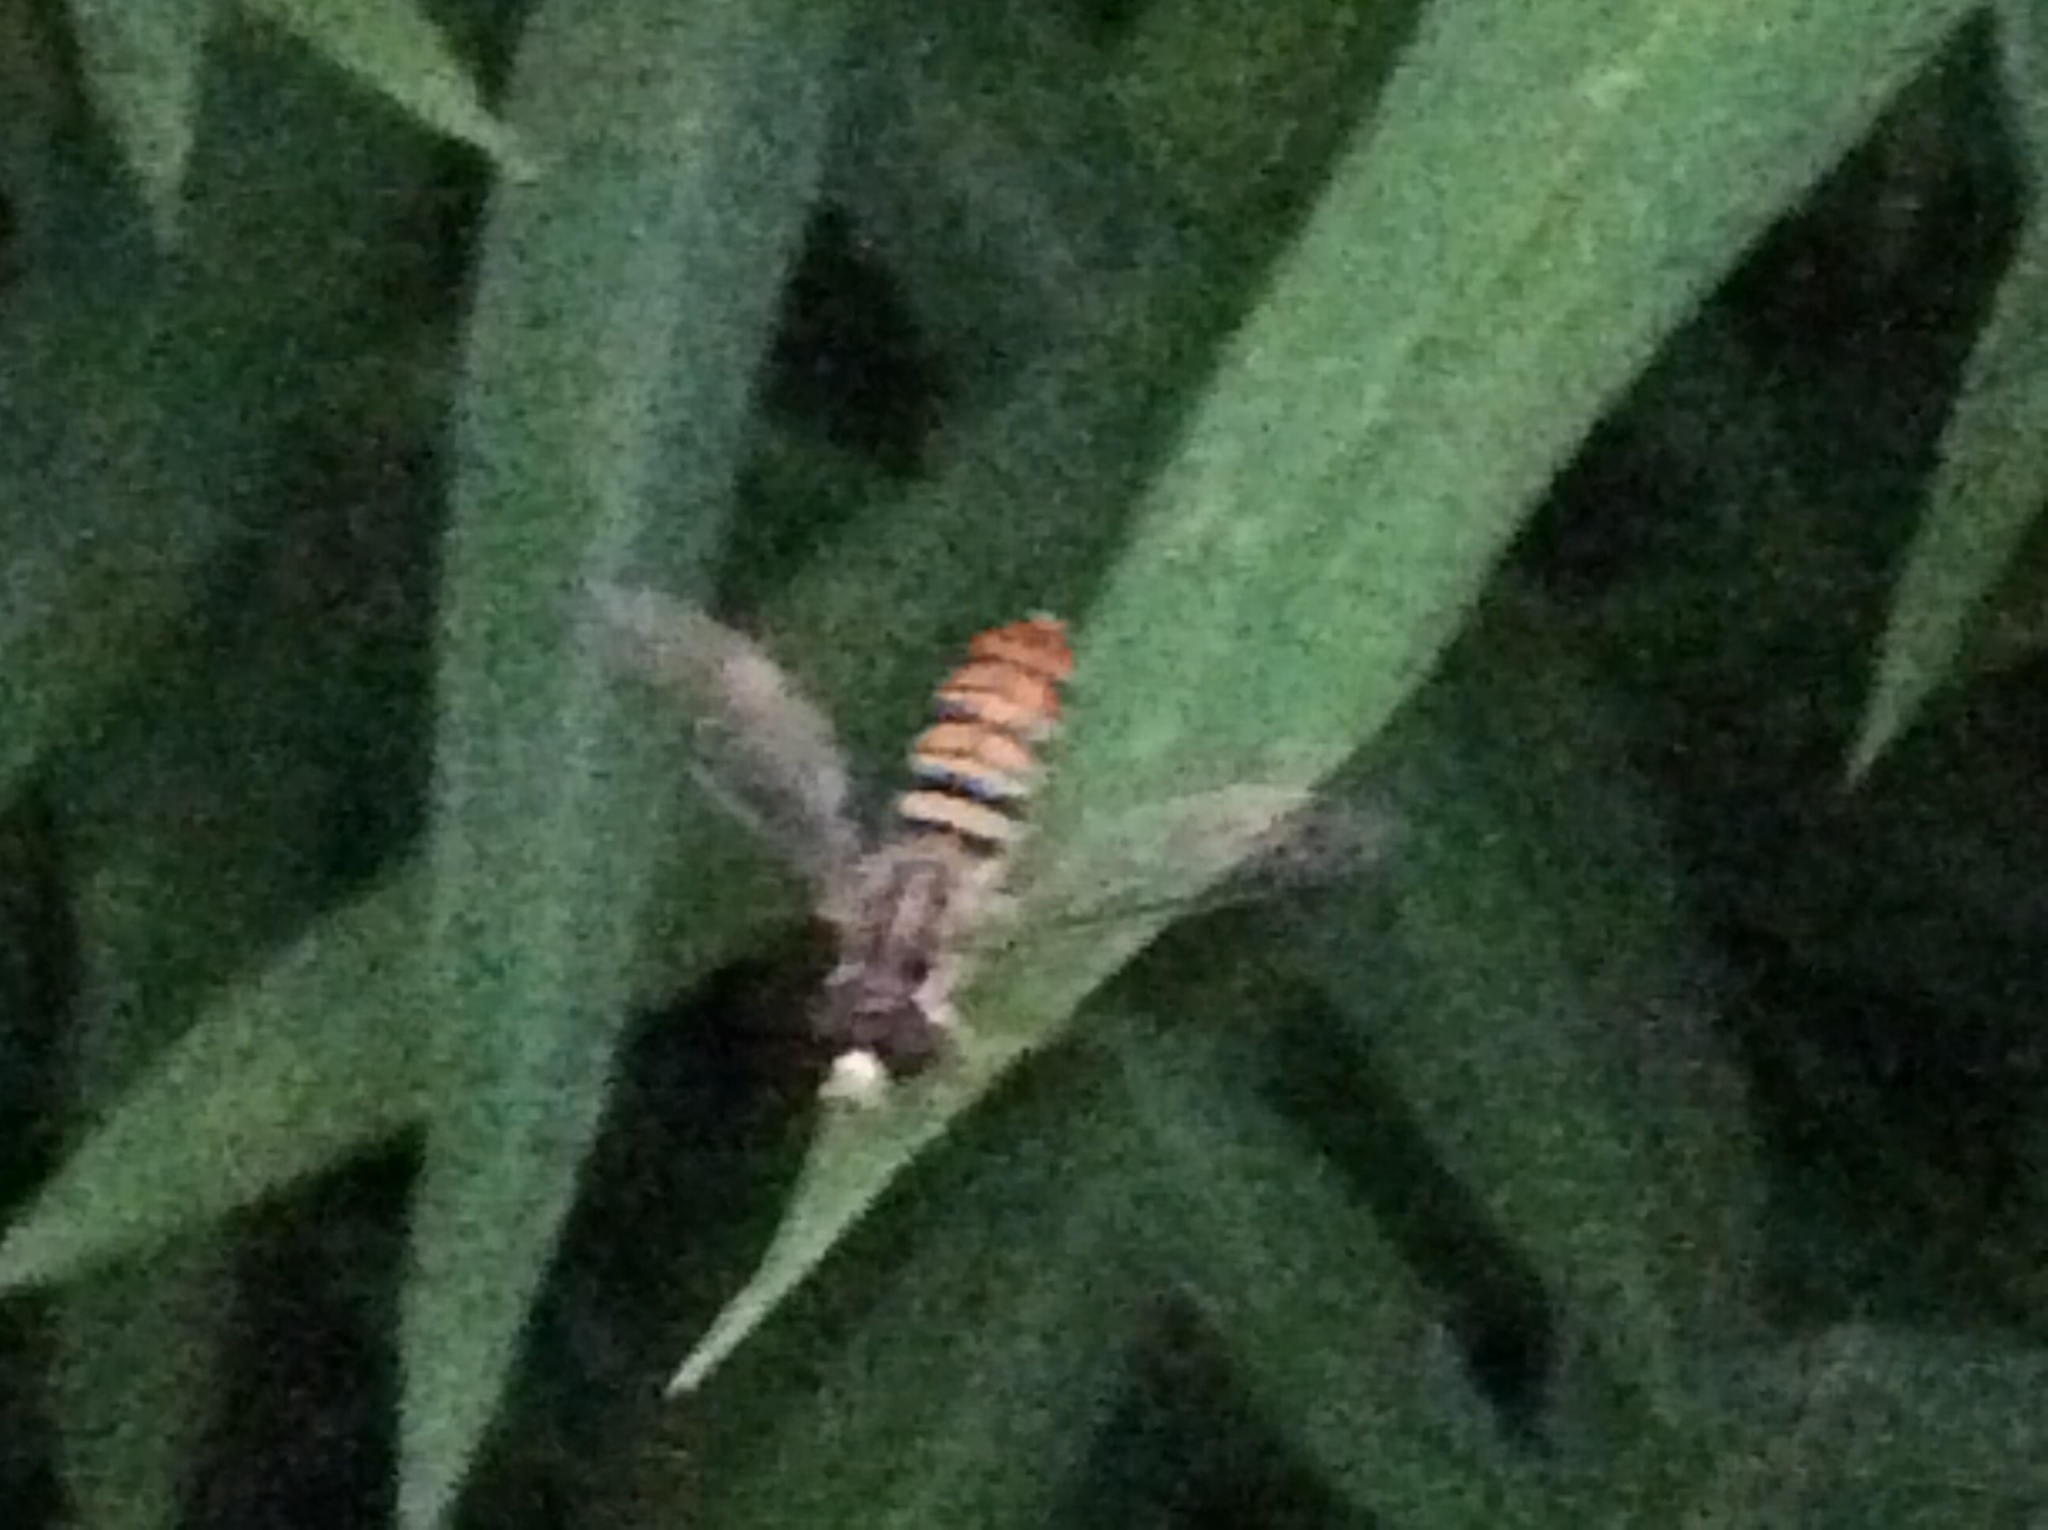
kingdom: Animalia
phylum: Arthropoda
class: Insecta
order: Diptera
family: Syrphidae
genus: Toxomerus
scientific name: Toxomerus politus
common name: Maize calligrapher
